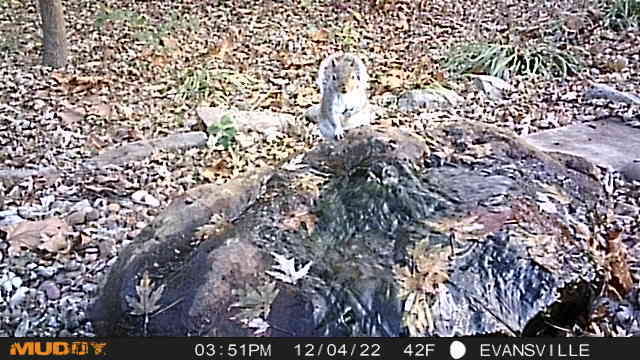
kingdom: Animalia
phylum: Chordata
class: Mammalia
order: Rodentia
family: Sciuridae
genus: Sciurus
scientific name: Sciurus carolinensis
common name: Eastern gray squirrel
